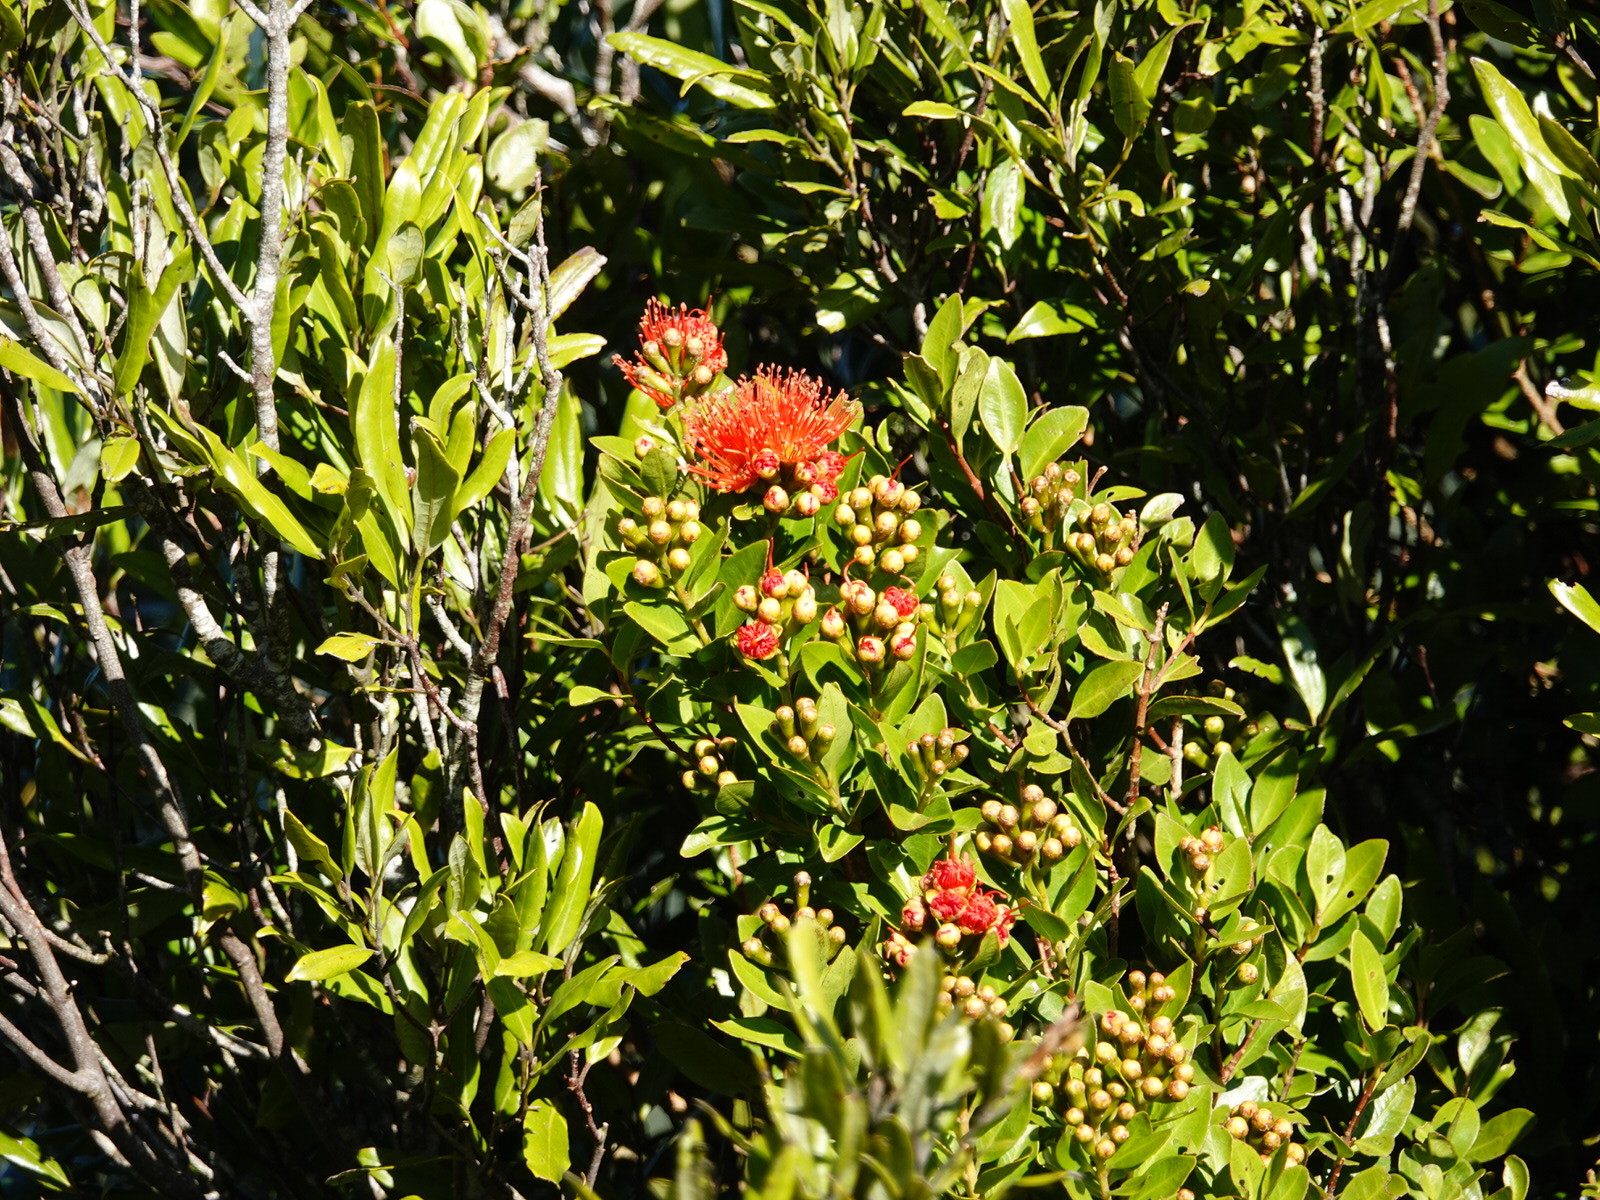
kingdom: Plantae
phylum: Tracheophyta
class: Magnoliopsida
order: Myrtales
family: Myrtaceae
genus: Metrosideros
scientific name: Metrosideros fulgens
